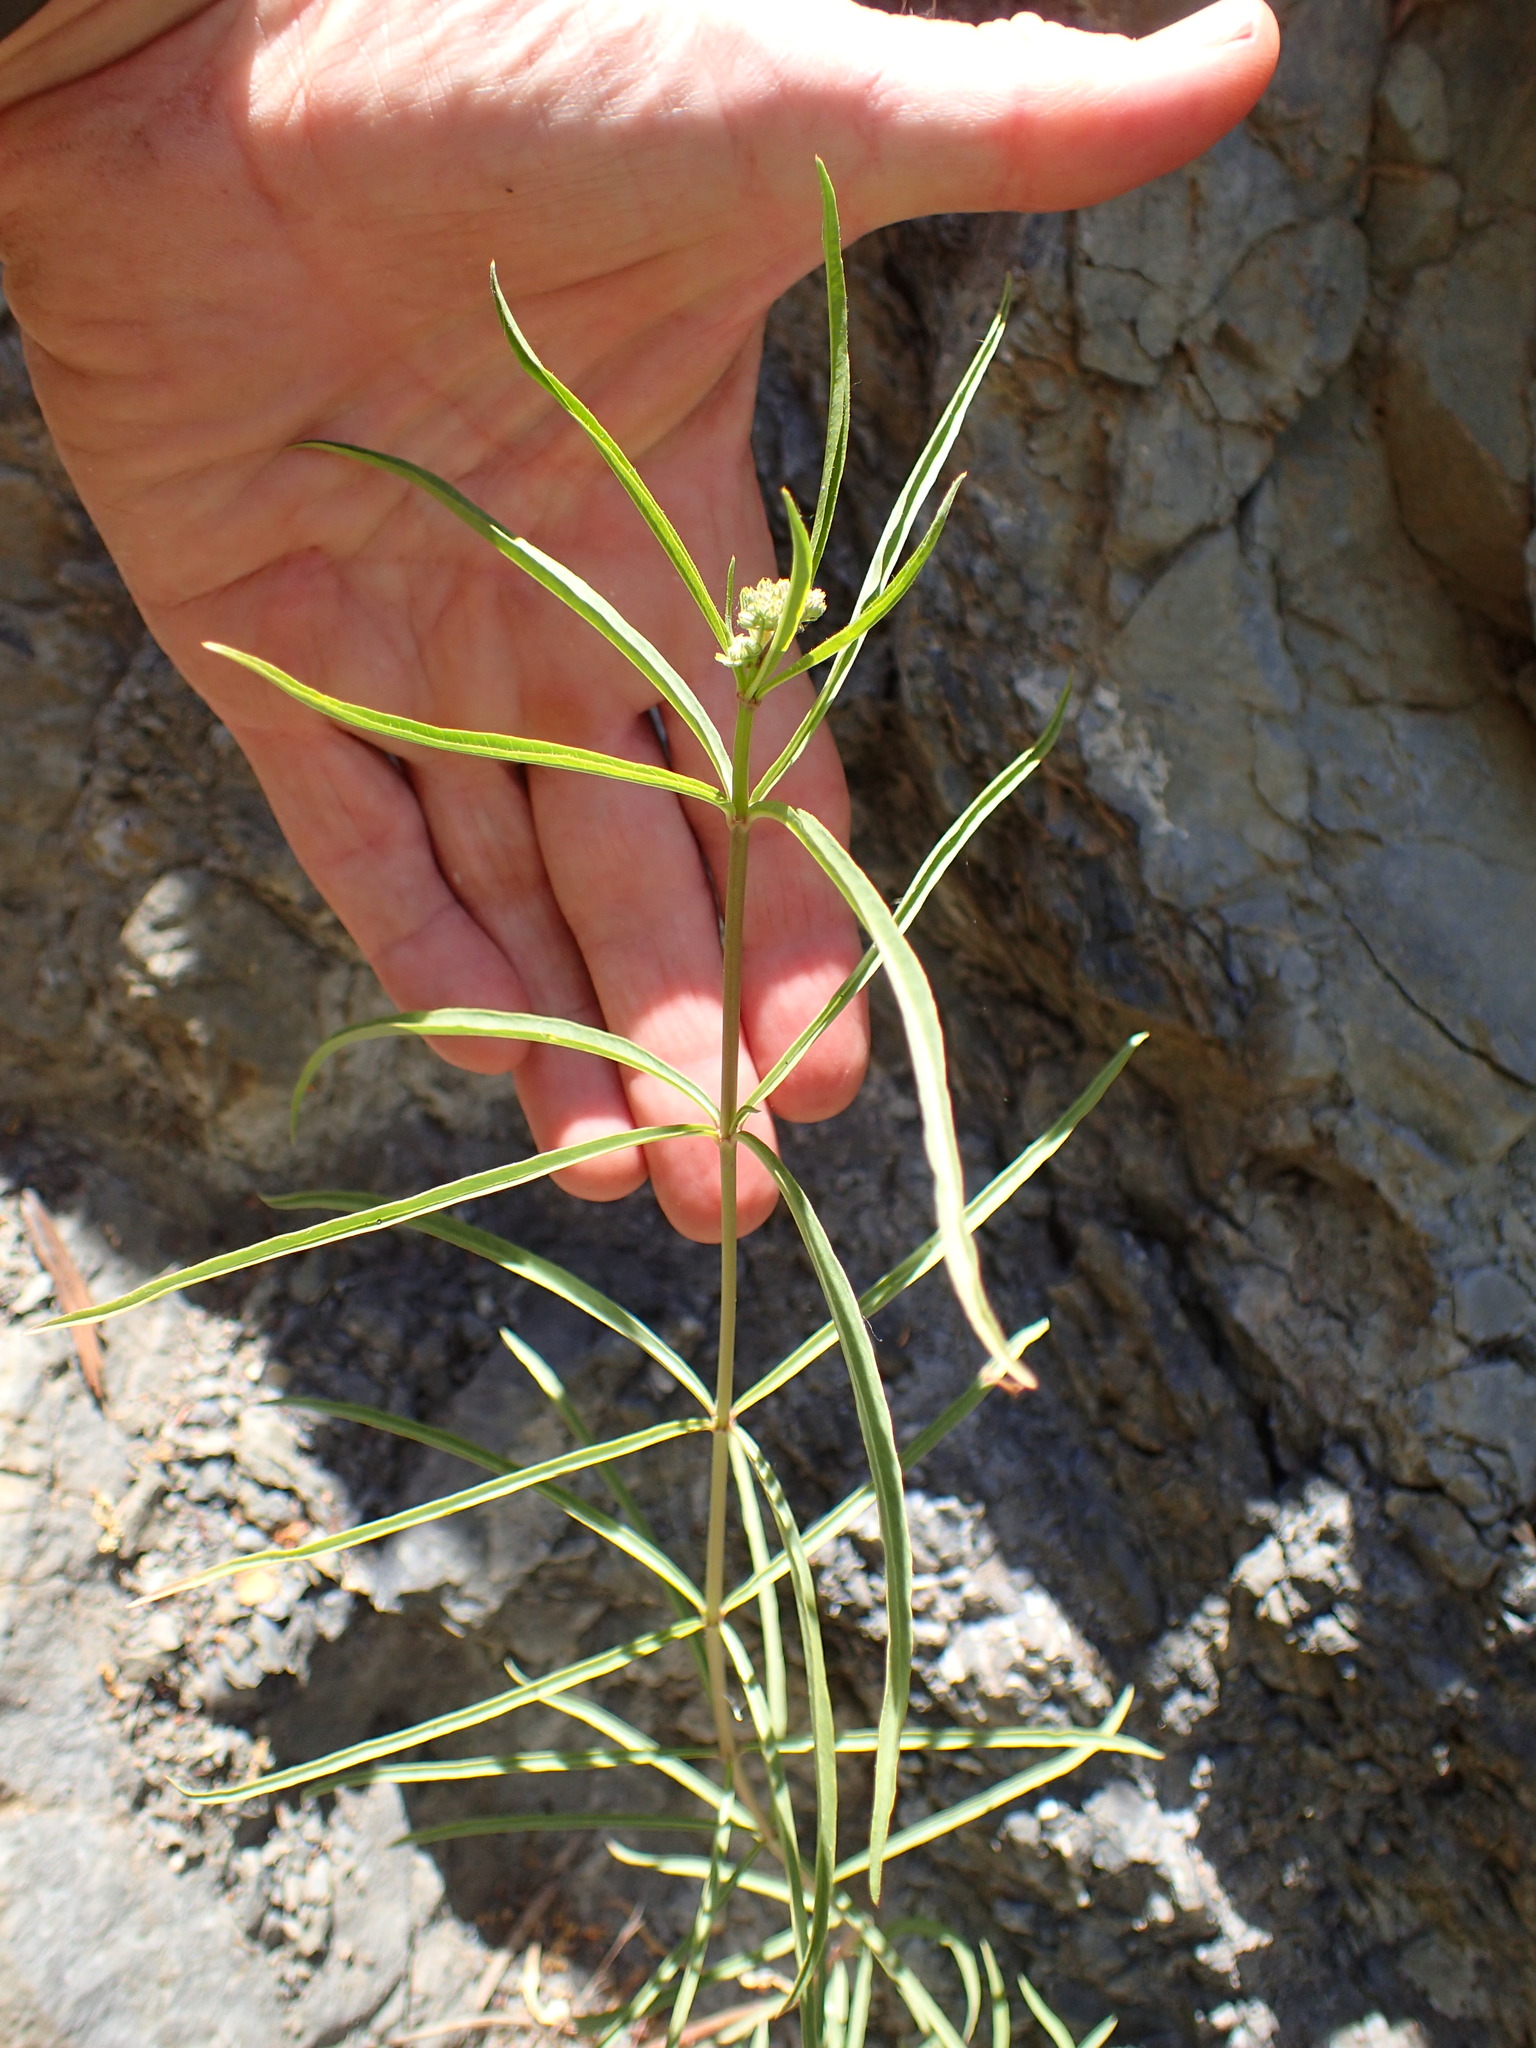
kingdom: Plantae
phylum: Tracheophyta
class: Magnoliopsida
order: Gentianales
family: Apocynaceae
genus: Asclepias
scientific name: Asclepias fascicularis
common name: Mexican milkweed
